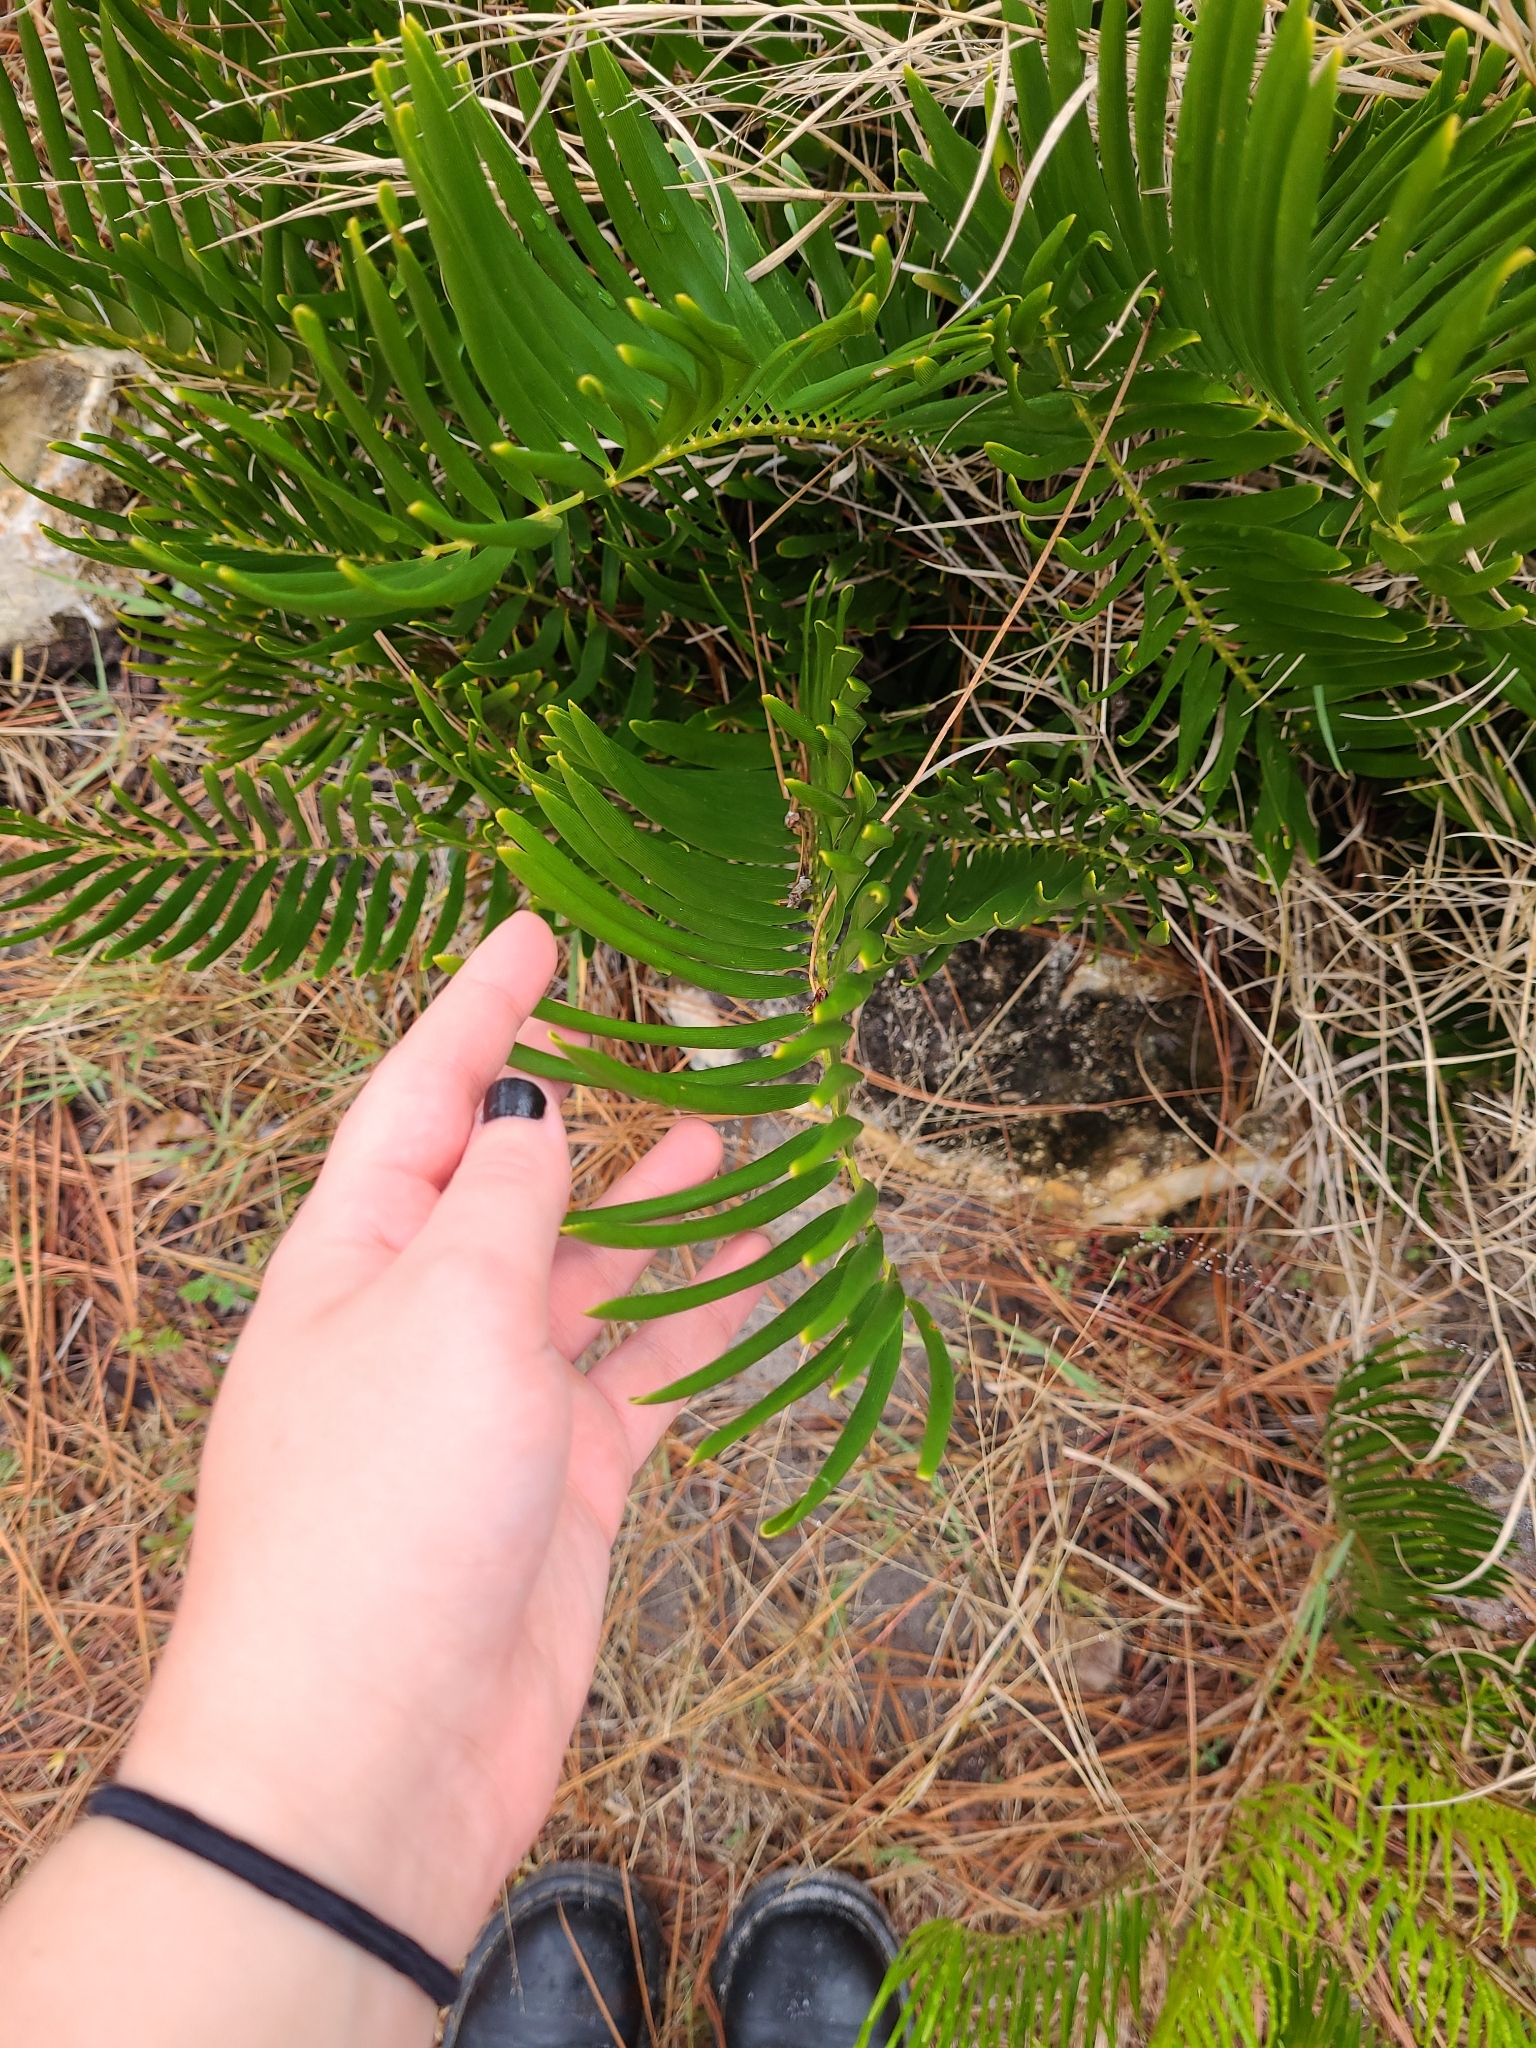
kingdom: Plantae
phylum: Tracheophyta
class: Cycadopsida
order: Cycadales
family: Zamiaceae
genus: Zamia
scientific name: Zamia integrifolia
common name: Florida arrowroot
